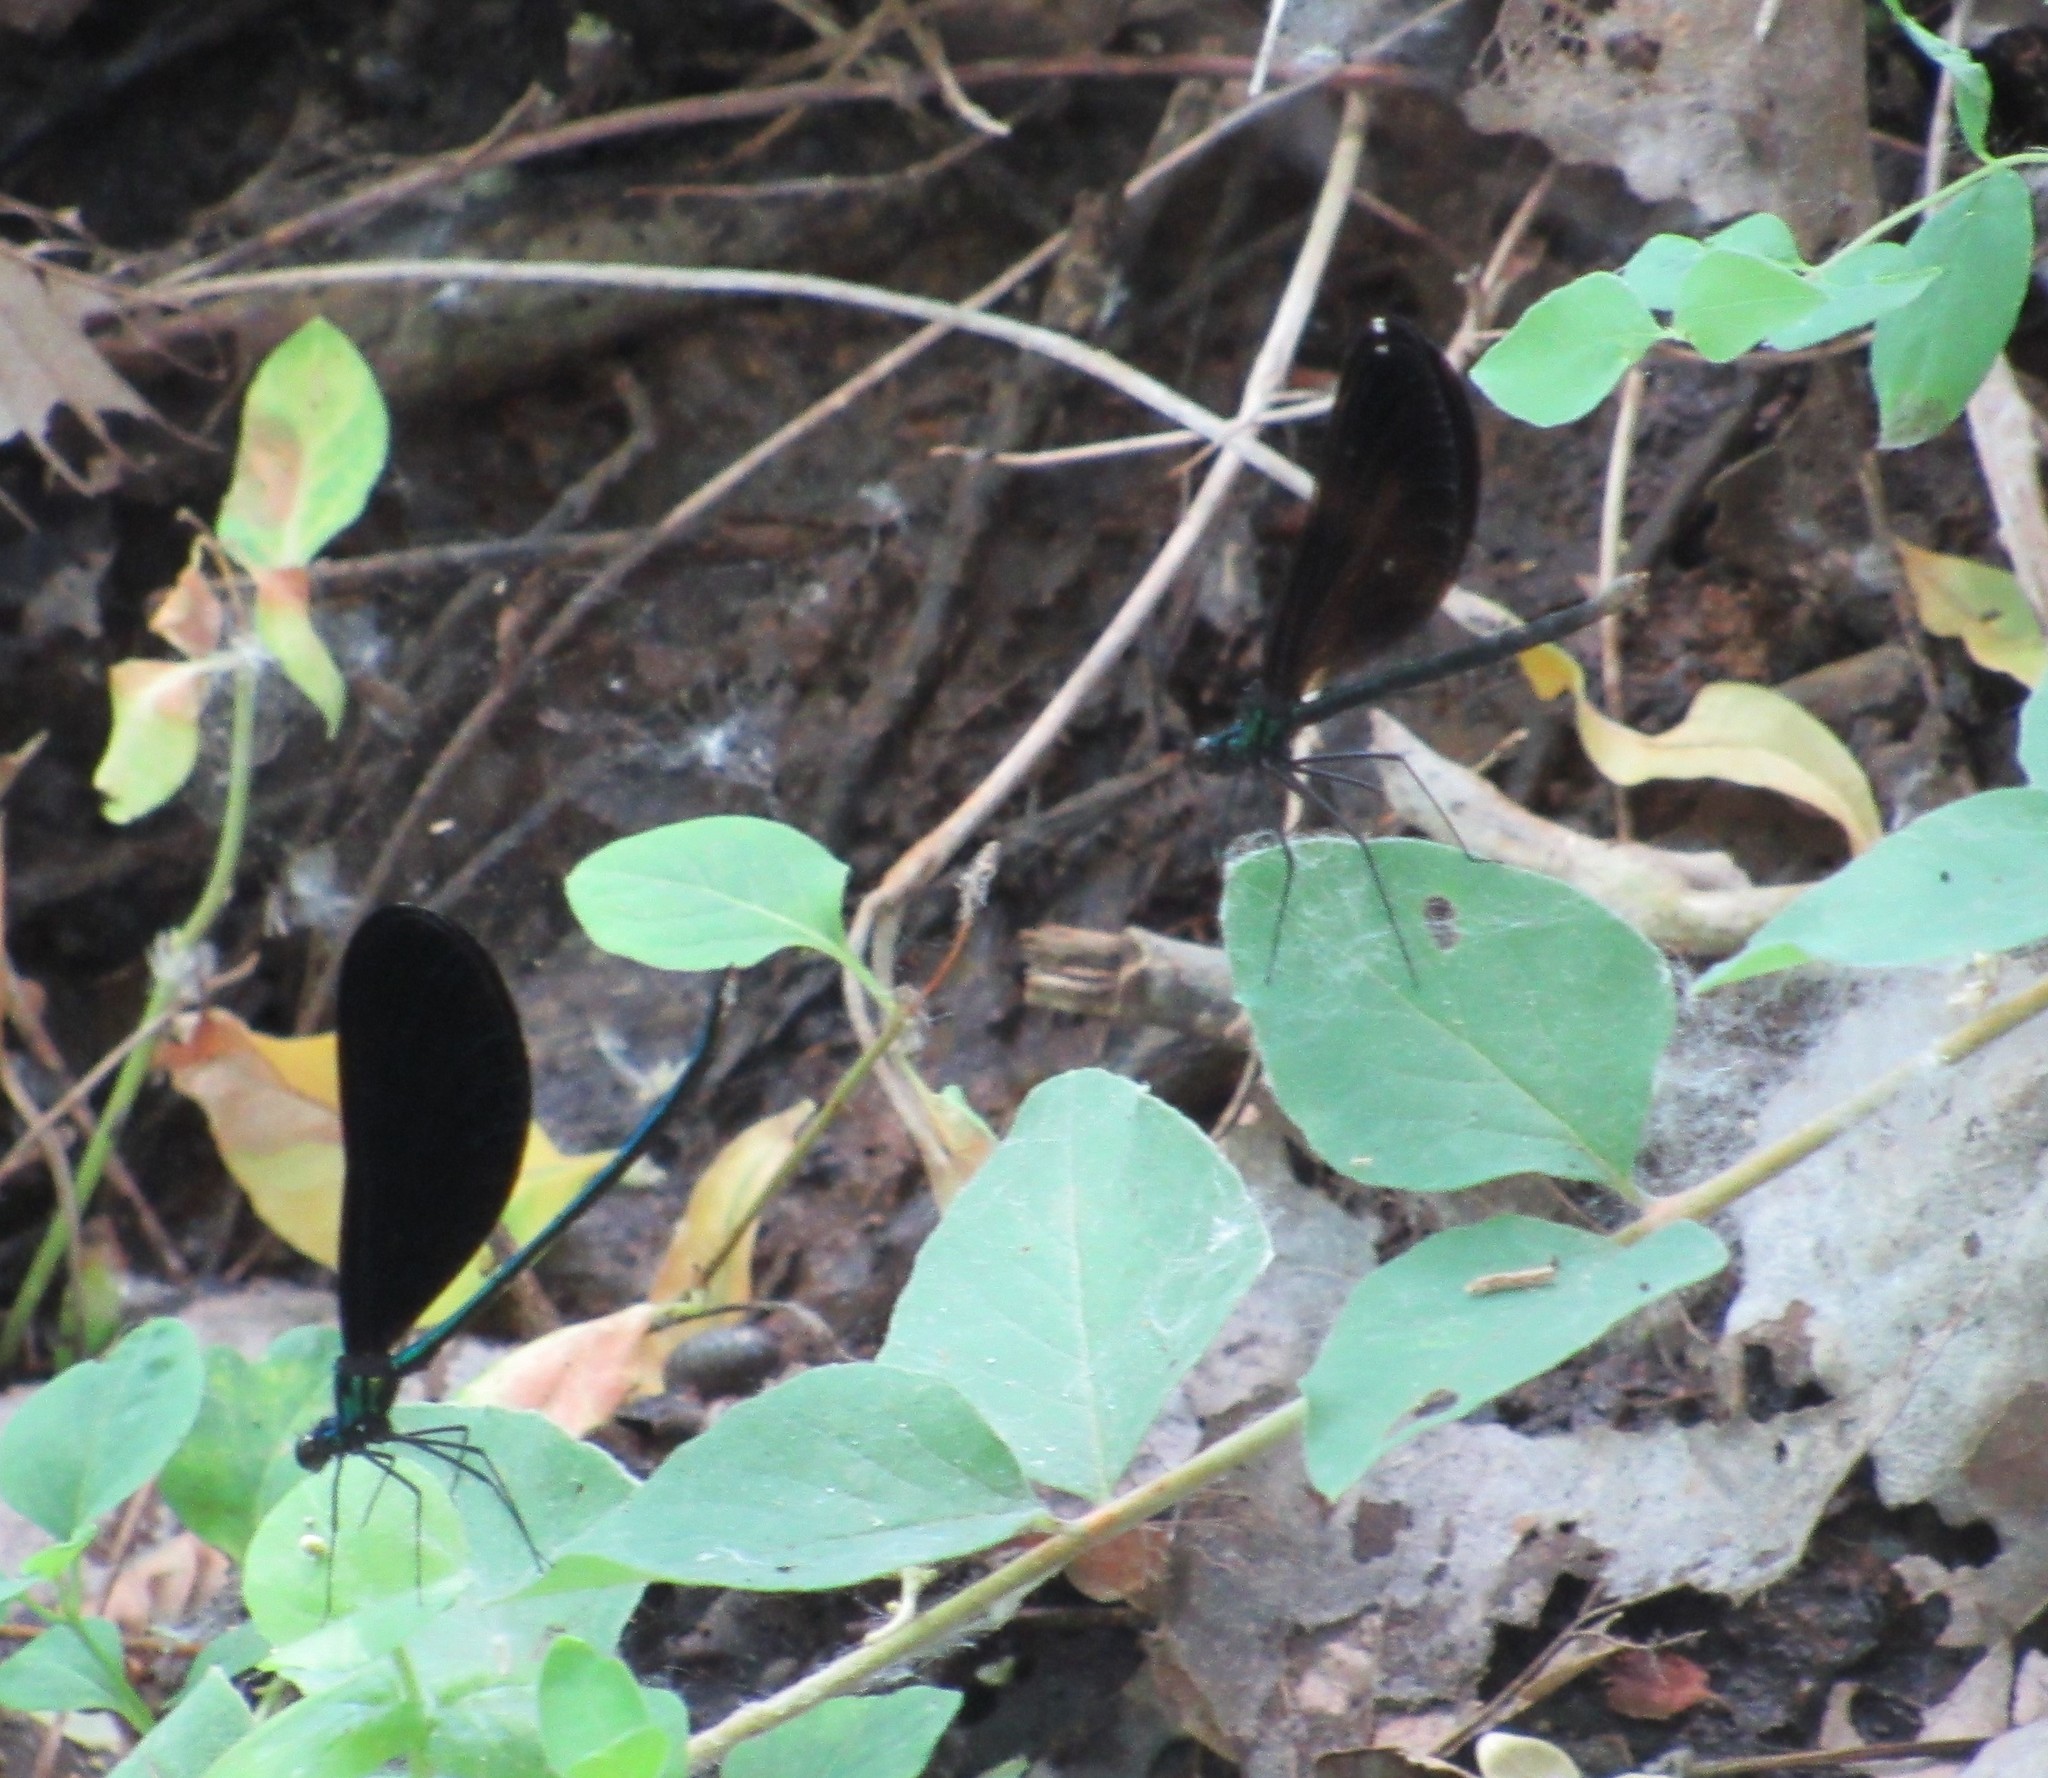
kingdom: Animalia
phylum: Arthropoda
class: Insecta
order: Odonata
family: Calopterygidae
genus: Calopteryx
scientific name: Calopteryx maculata
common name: Ebony jewelwing
